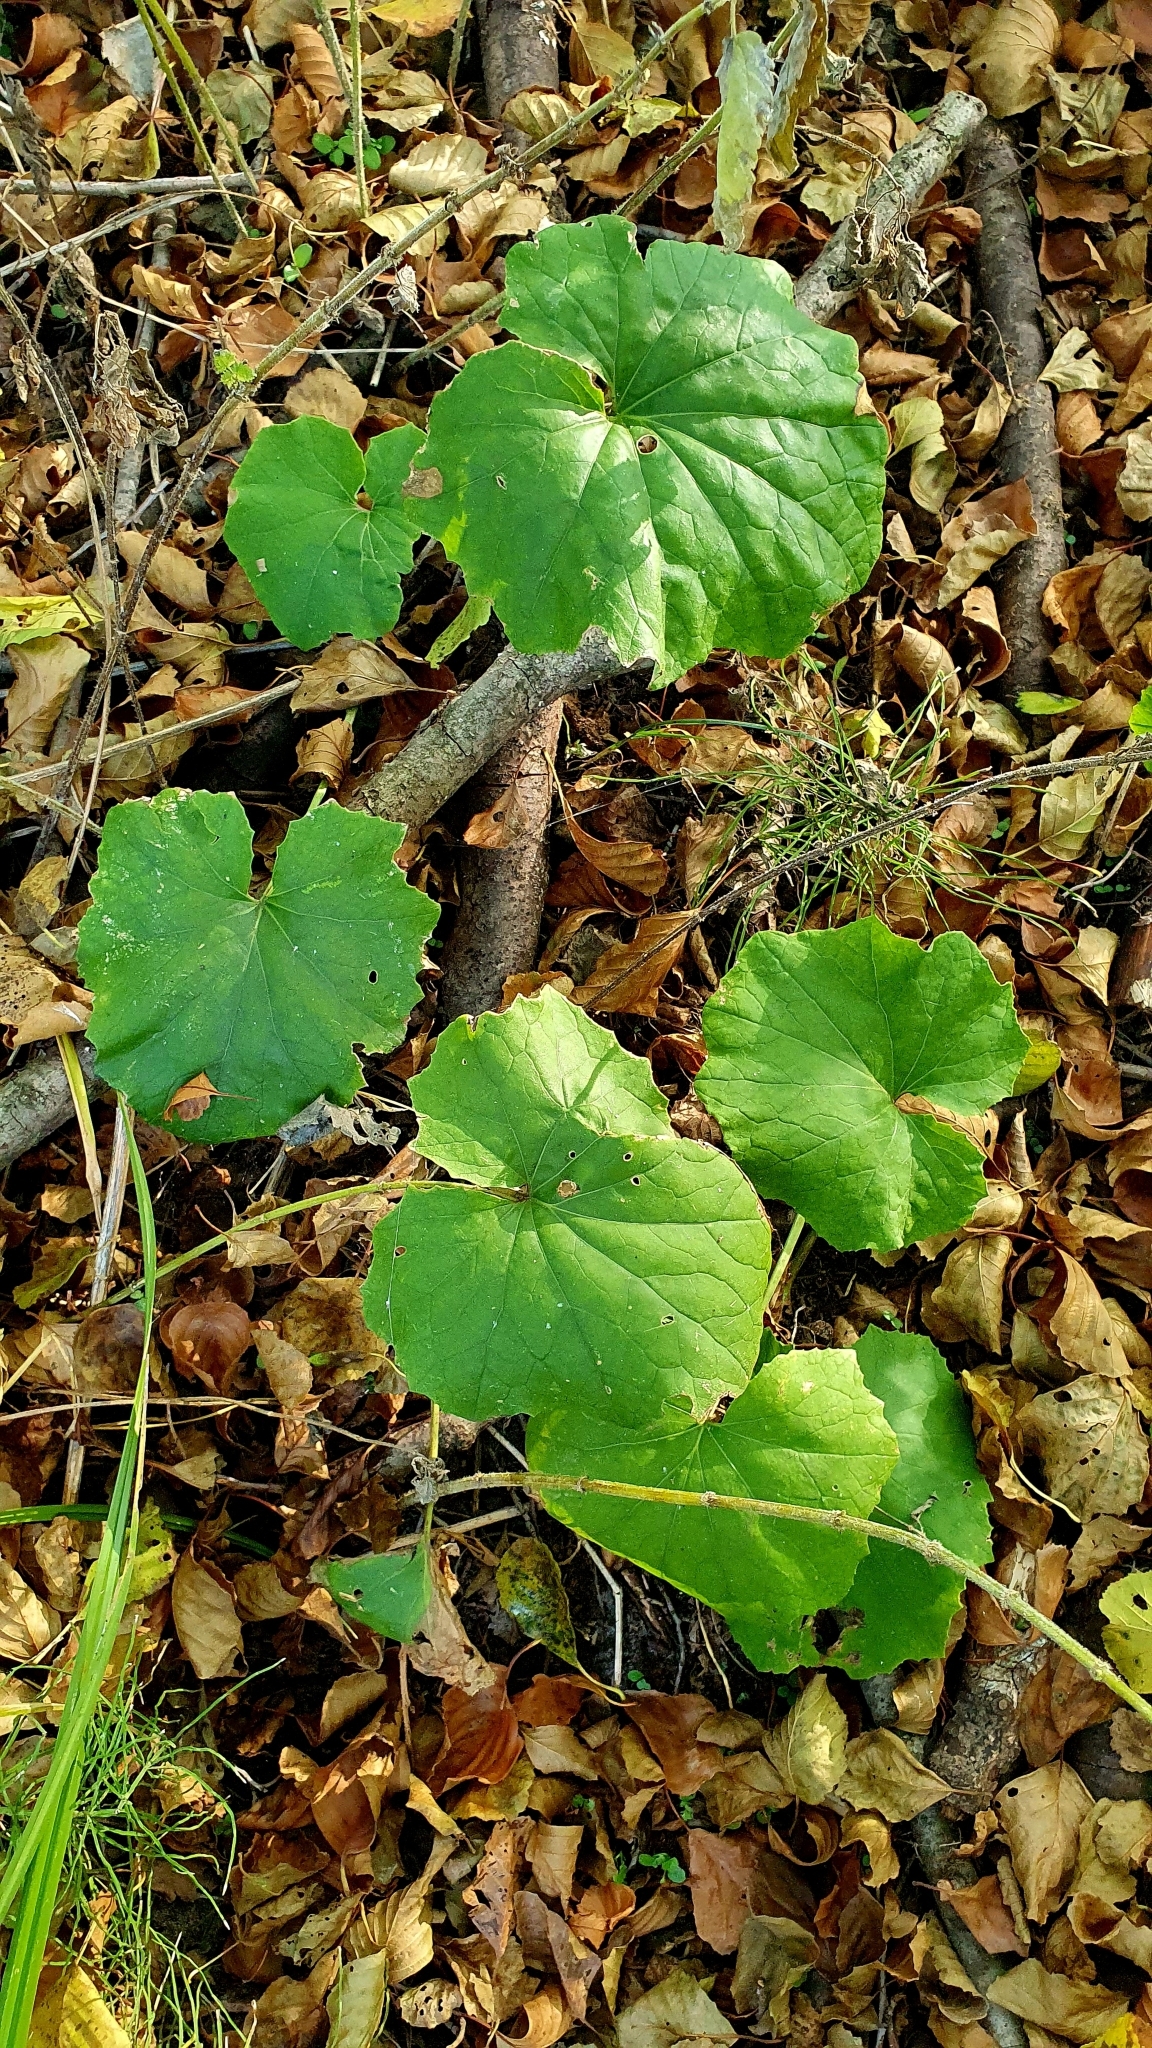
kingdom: Plantae
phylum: Tracheophyta
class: Magnoliopsida
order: Asterales
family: Asteraceae
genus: Tussilago
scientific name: Tussilago farfara
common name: Coltsfoot
